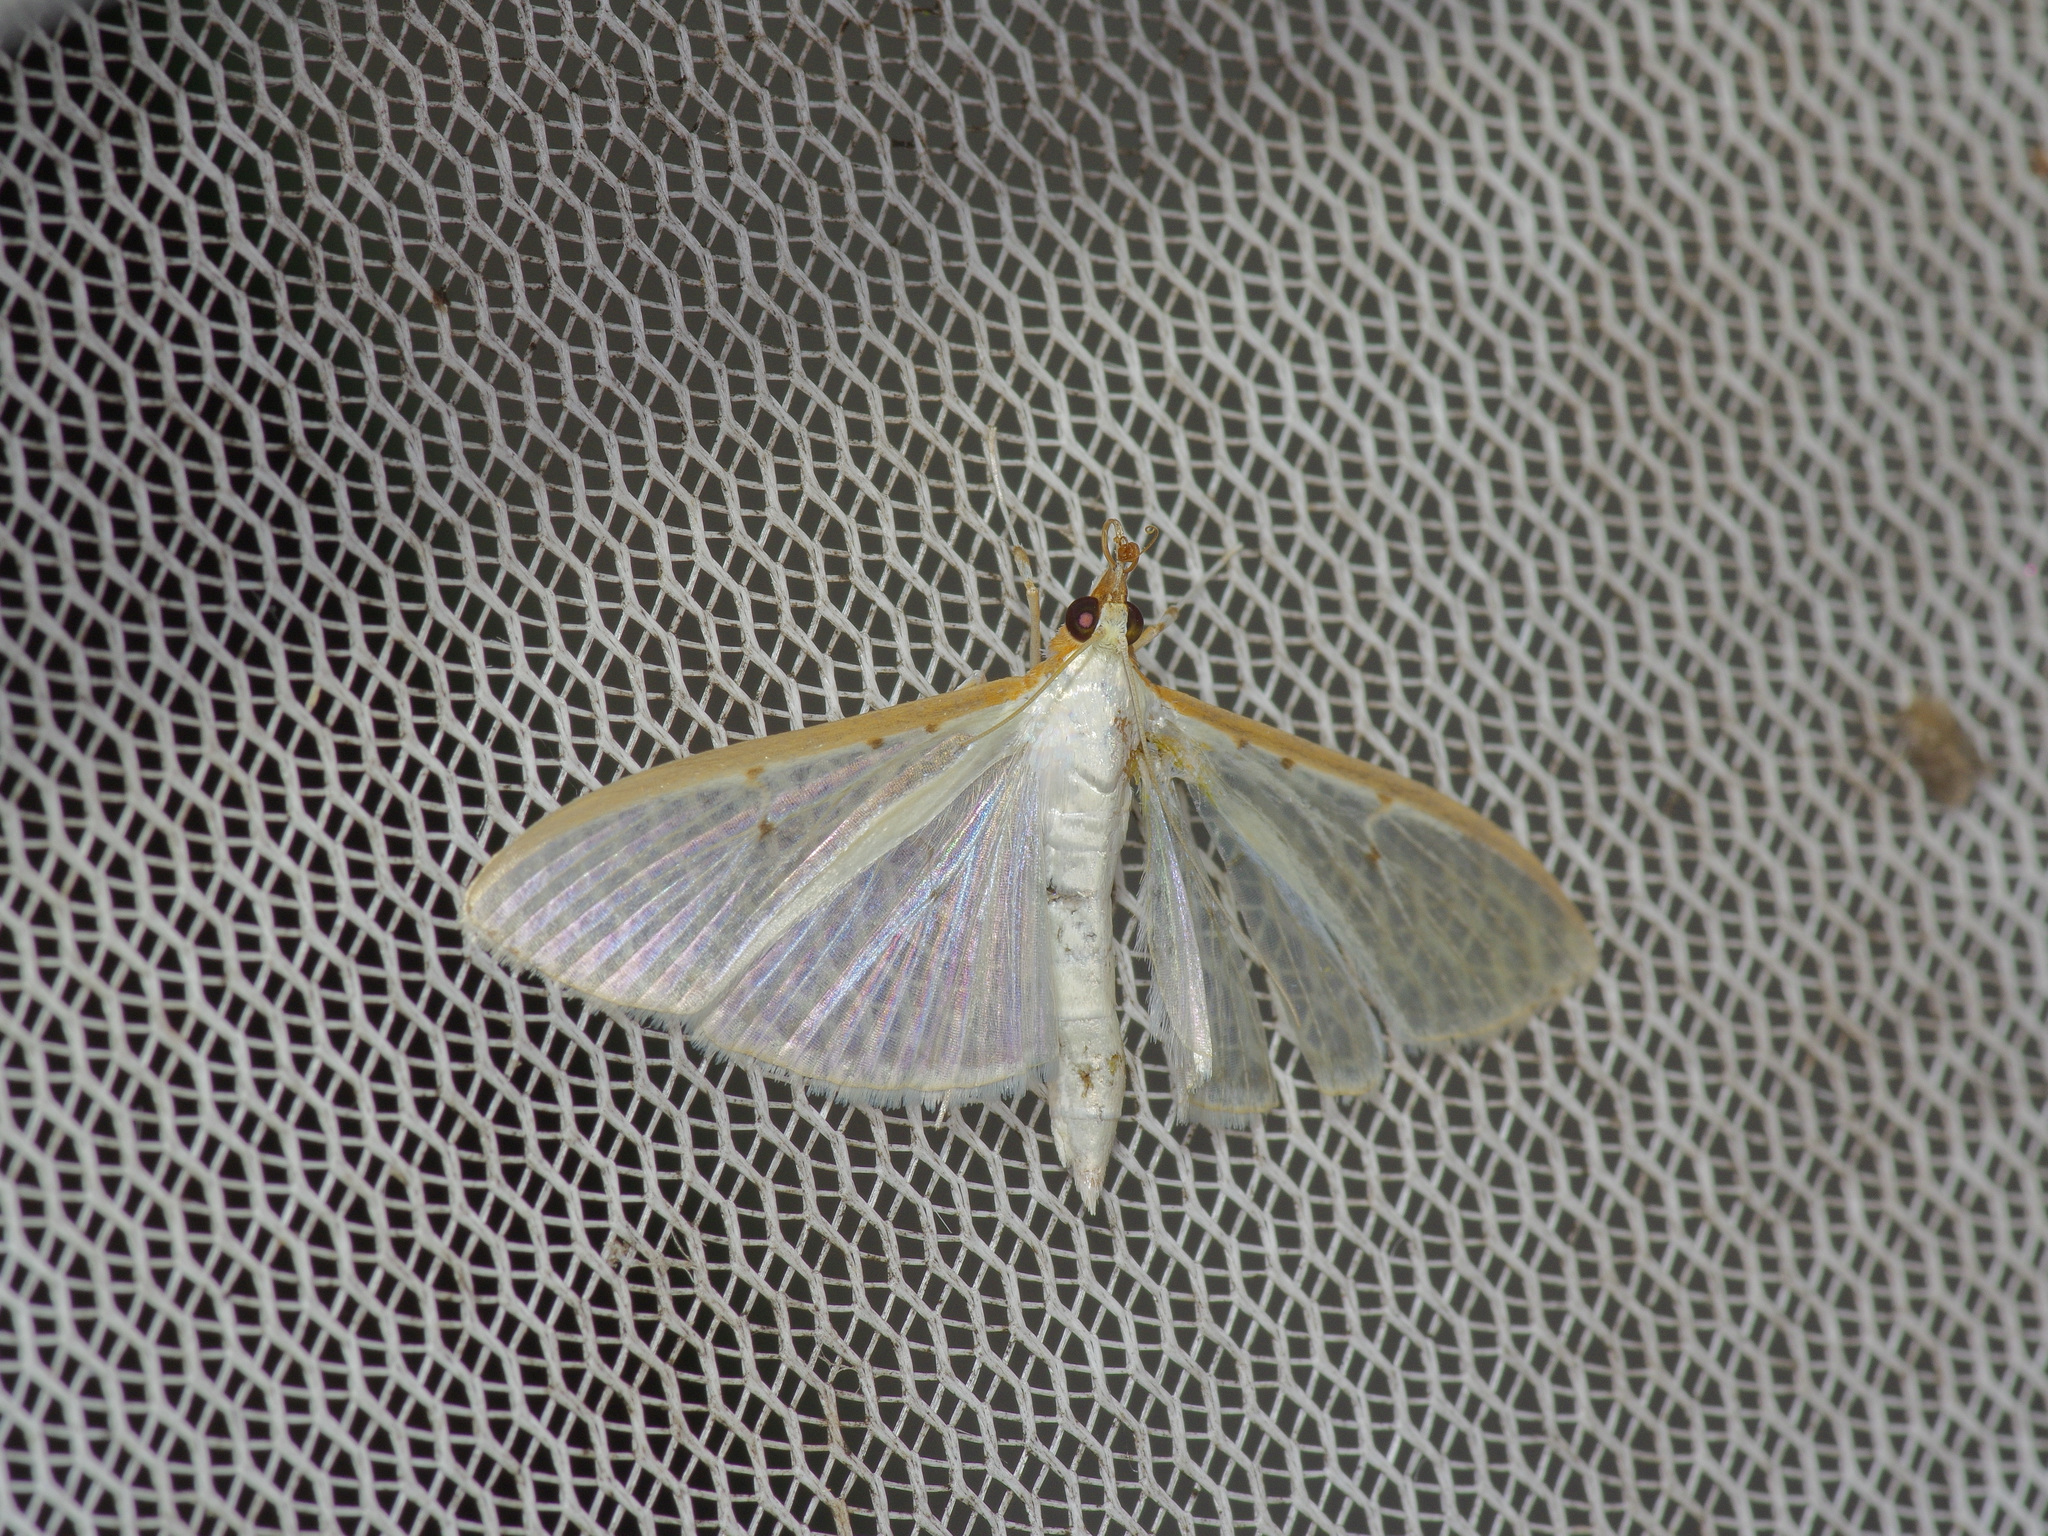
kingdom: Animalia
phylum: Arthropoda
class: Insecta
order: Lepidoptera
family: Crambidae
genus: Palpita
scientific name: Palpita quadristigmalis
